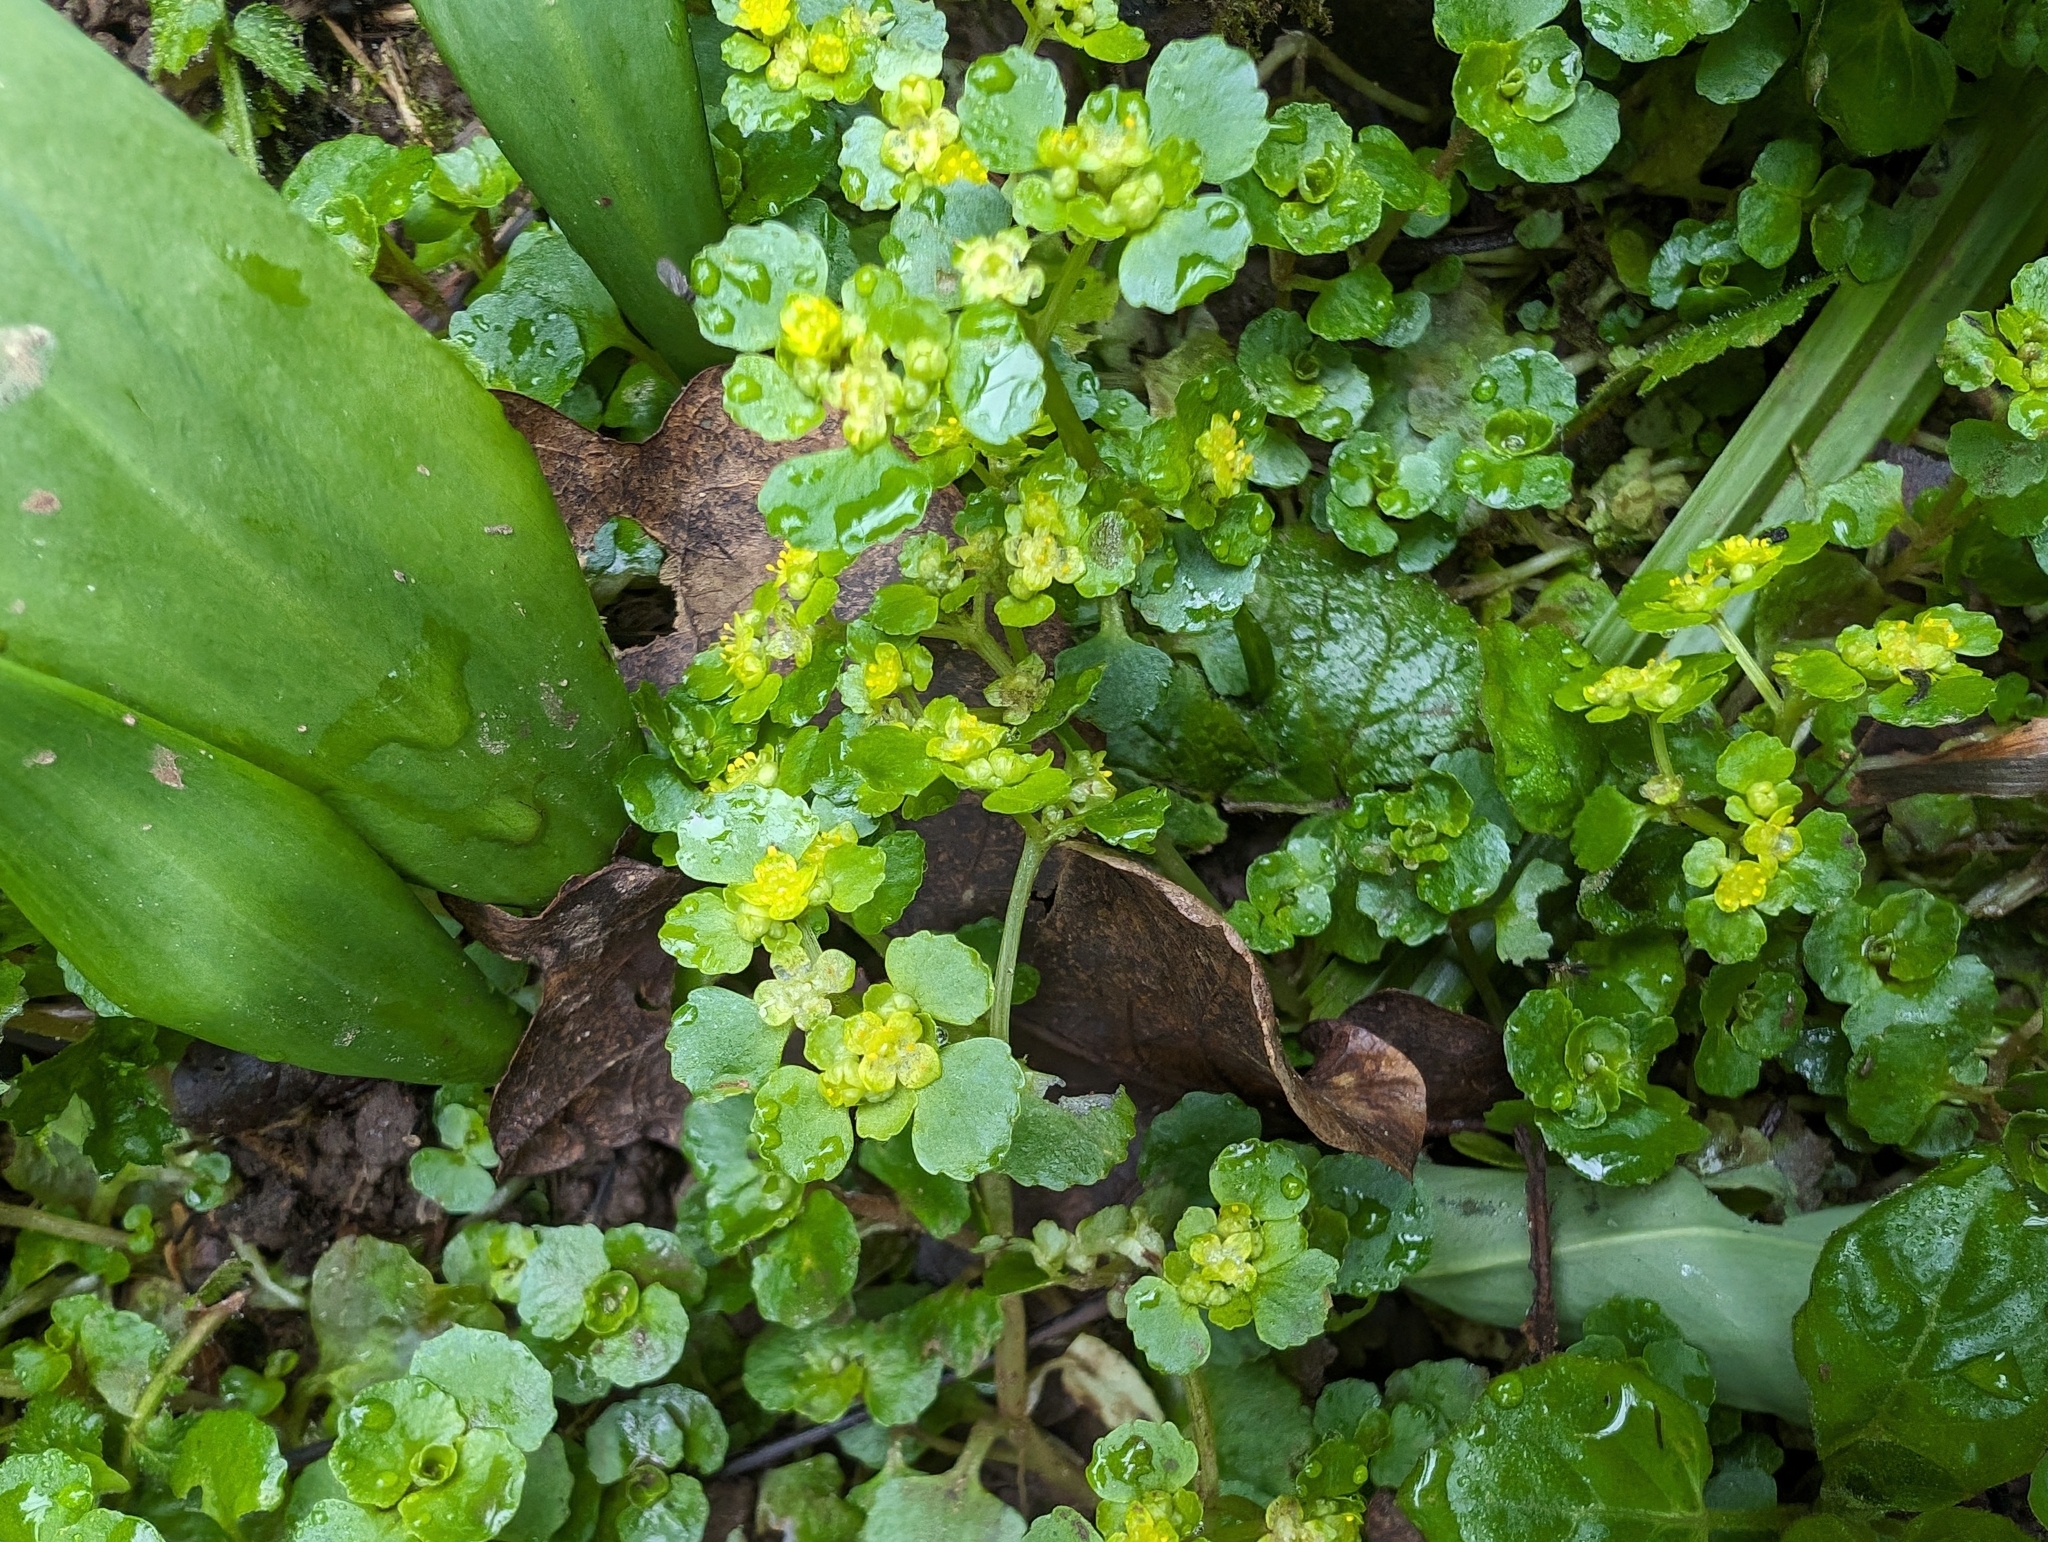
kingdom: Plantae
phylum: Tracheophyta
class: Magnoliopsida
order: Saxifragales
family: Saxifragaceae
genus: Chrysosplenium
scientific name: Chrysosplenium oppositifolium
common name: Opposite-leaved golden-saxifrage
